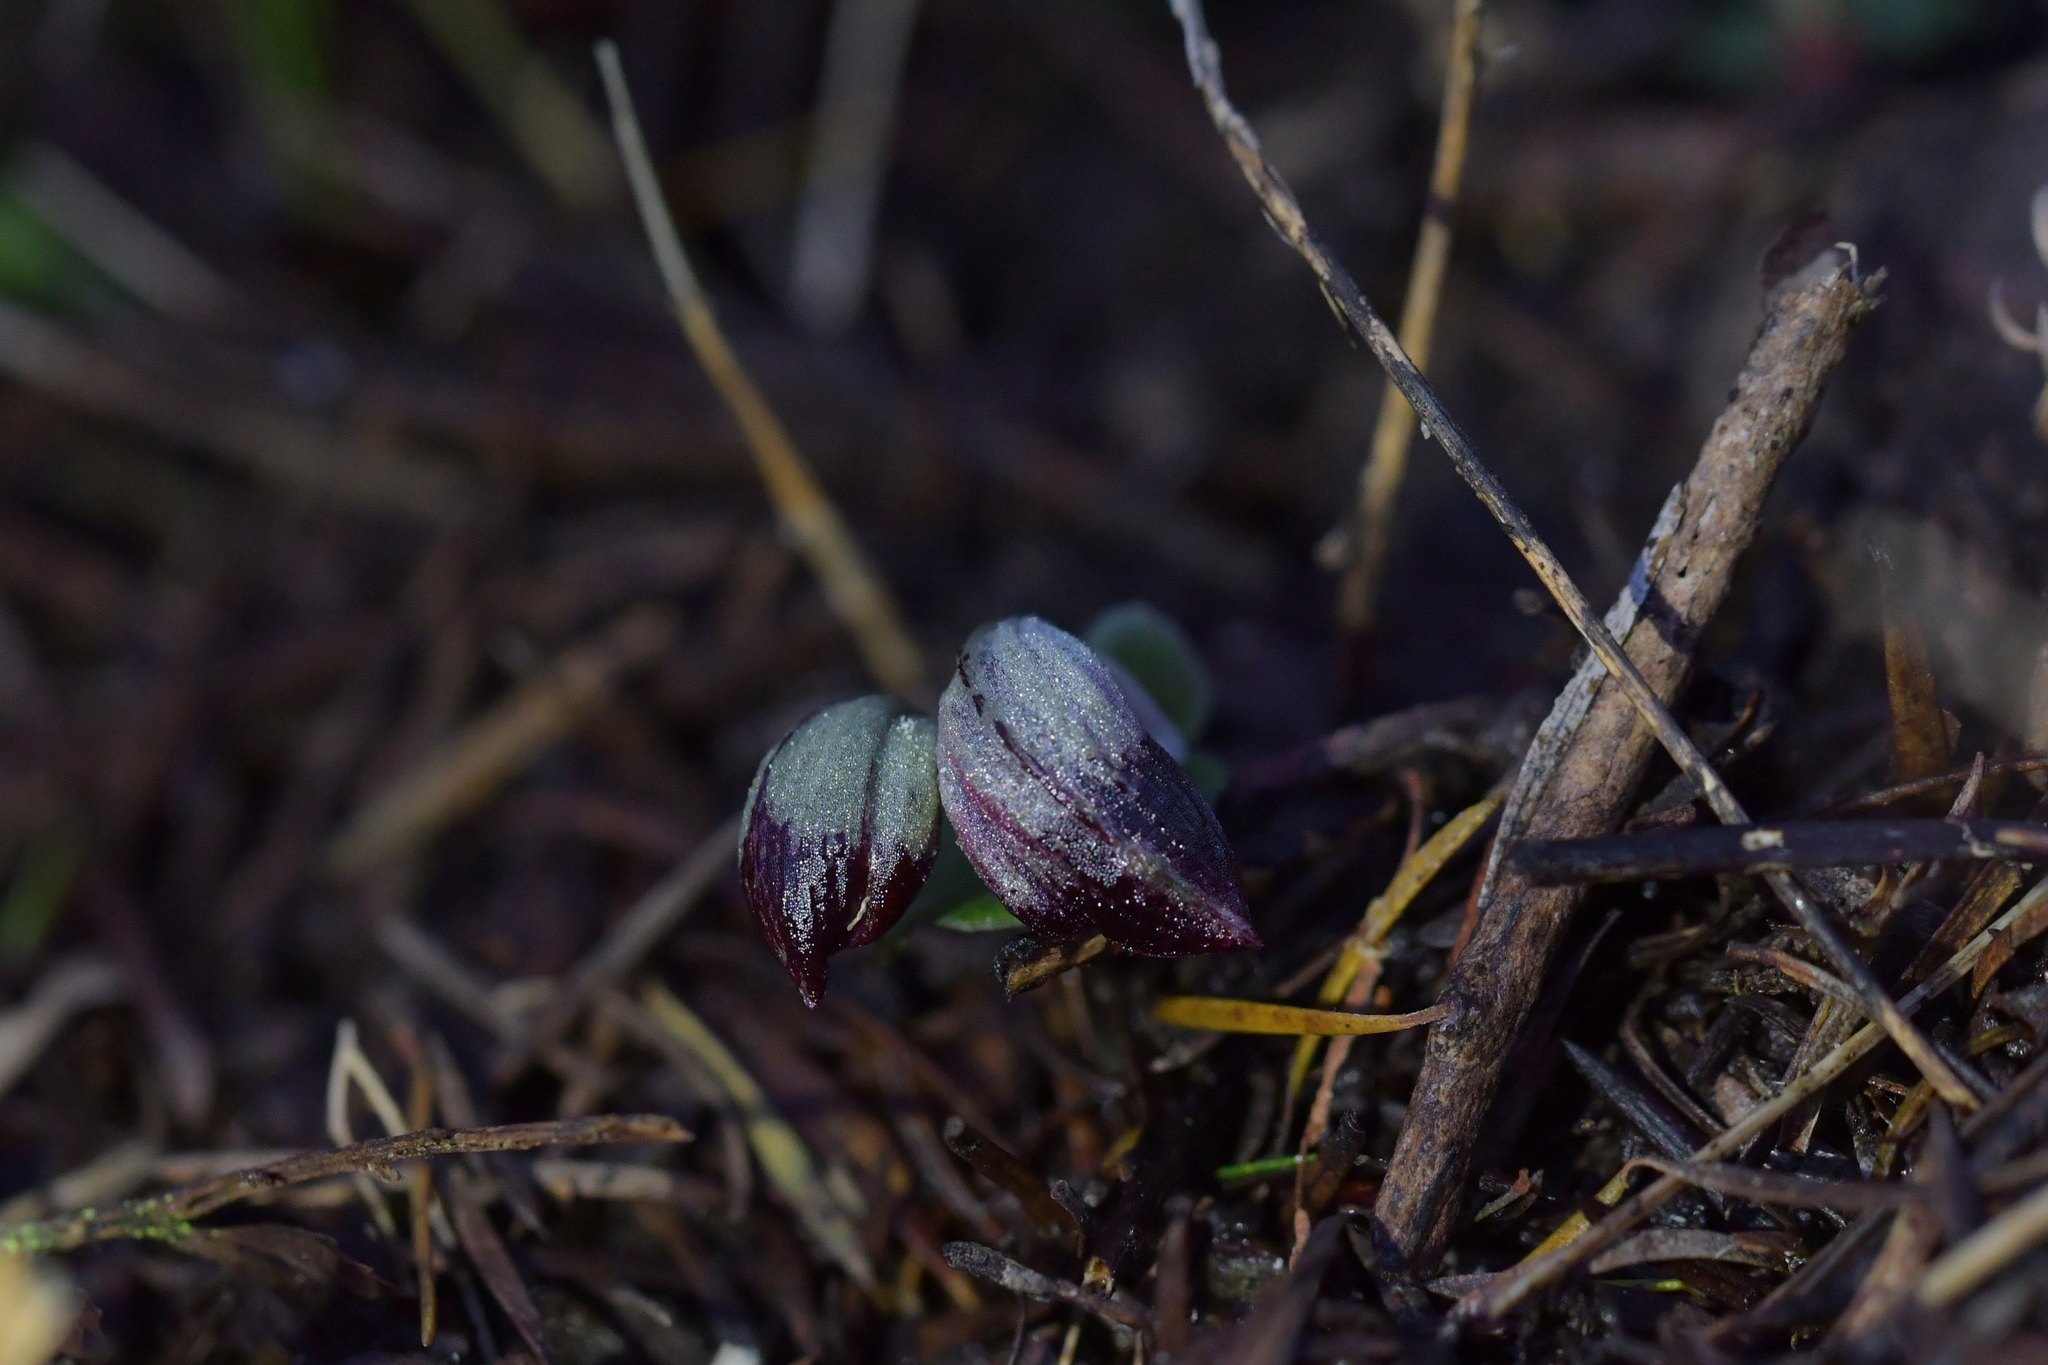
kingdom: Plantae
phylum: Tracheophyta
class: Liliopsida
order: Asparagales
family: Orchidaceae
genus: Corybas
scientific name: Corybas cheesemanii
